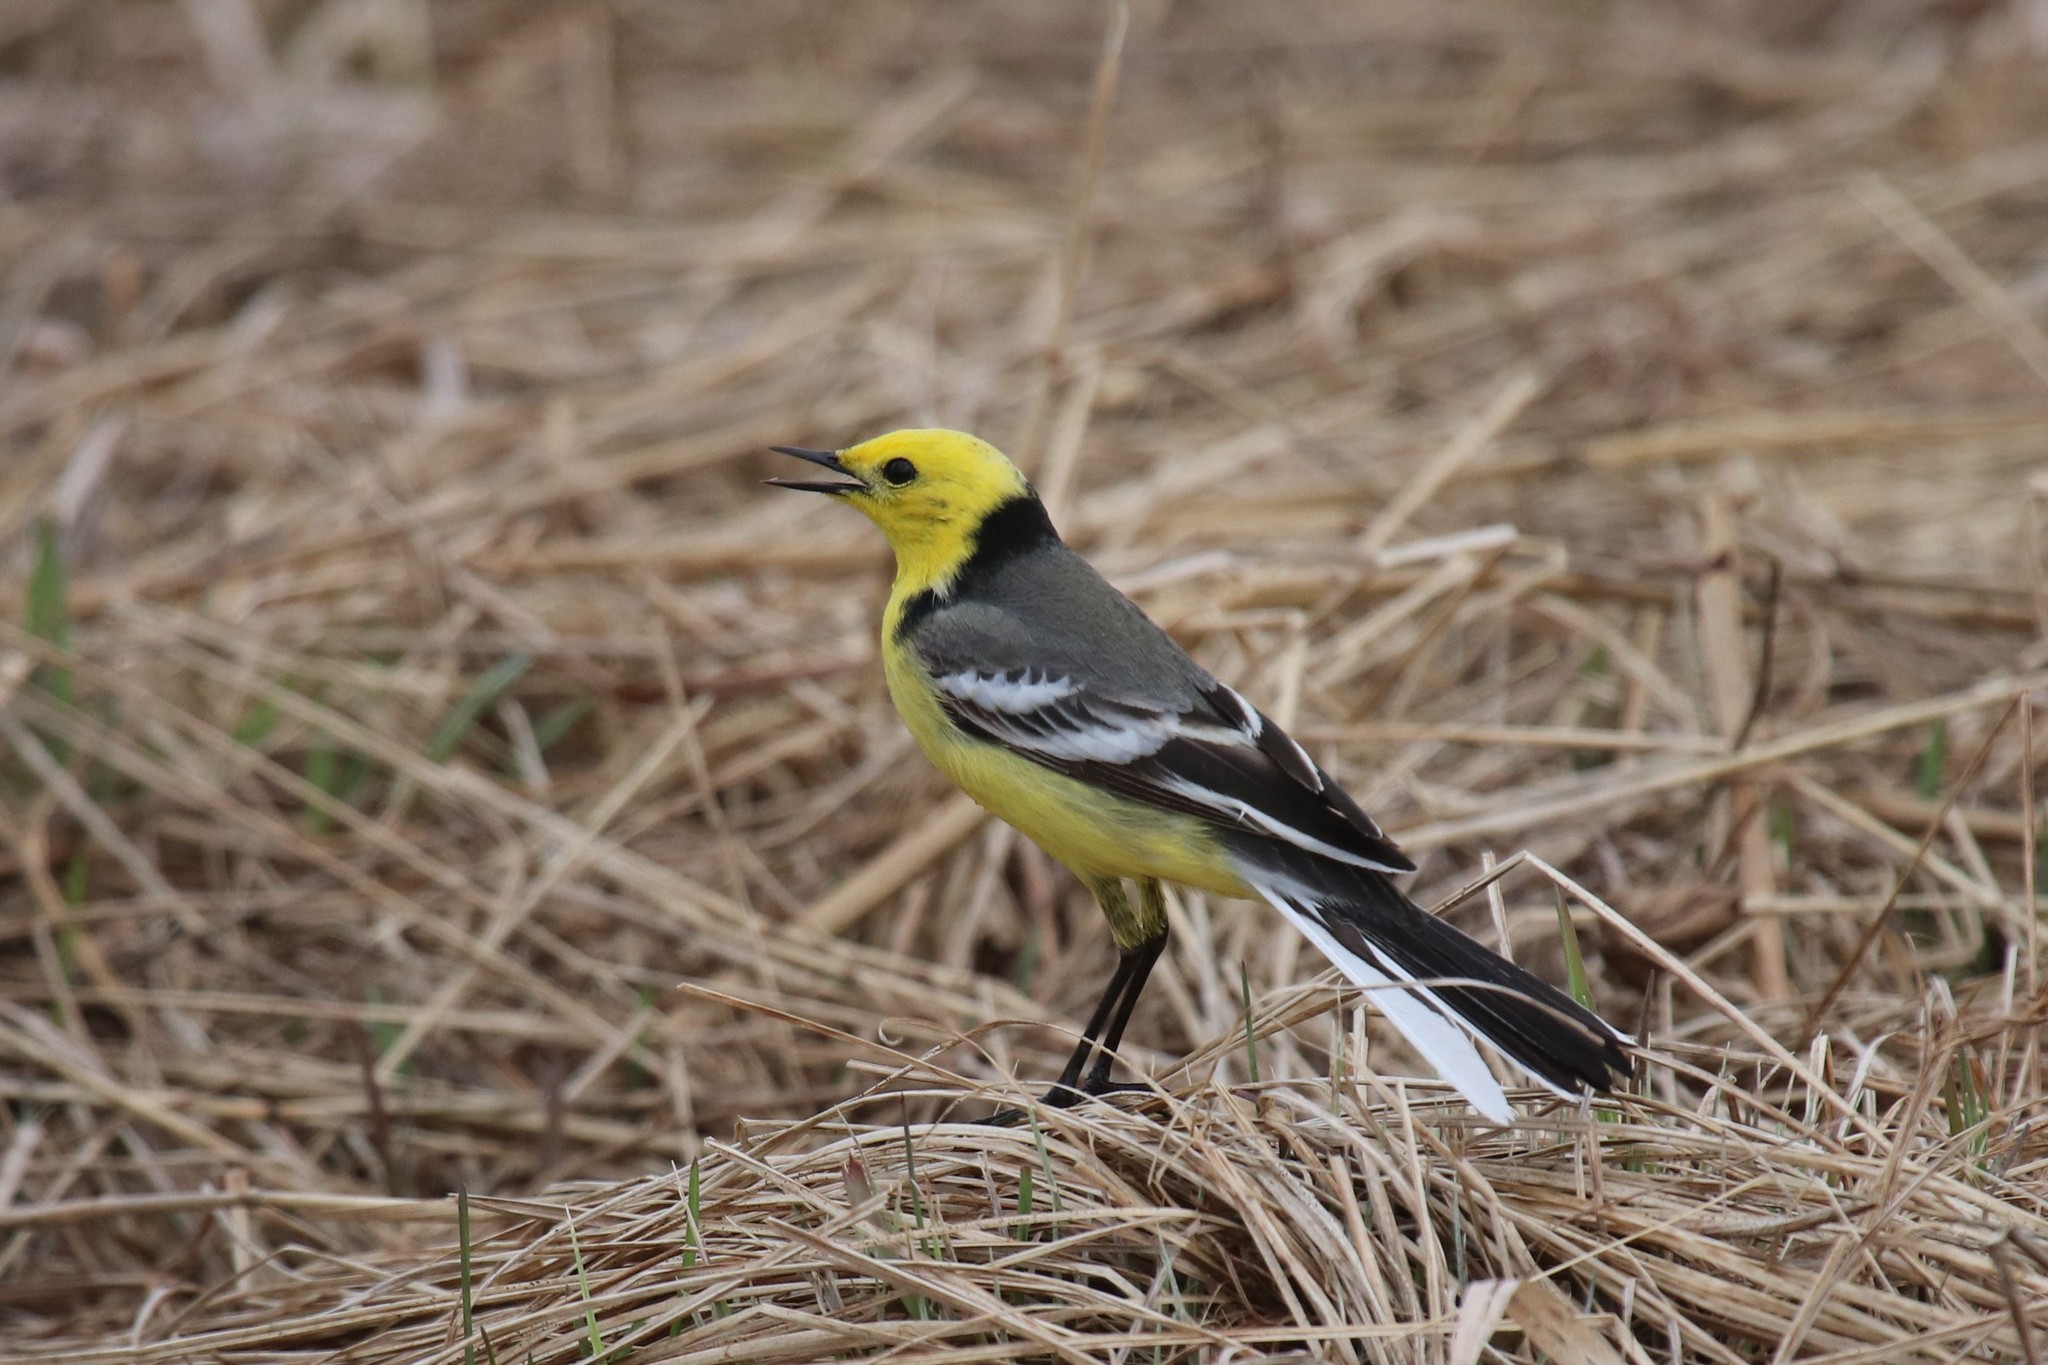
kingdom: Animalia
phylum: Chordata
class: Aves
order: Passeriformes
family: Motacillidae
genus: Motacilla
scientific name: Motacilla citreola
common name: Citrine wagtail
